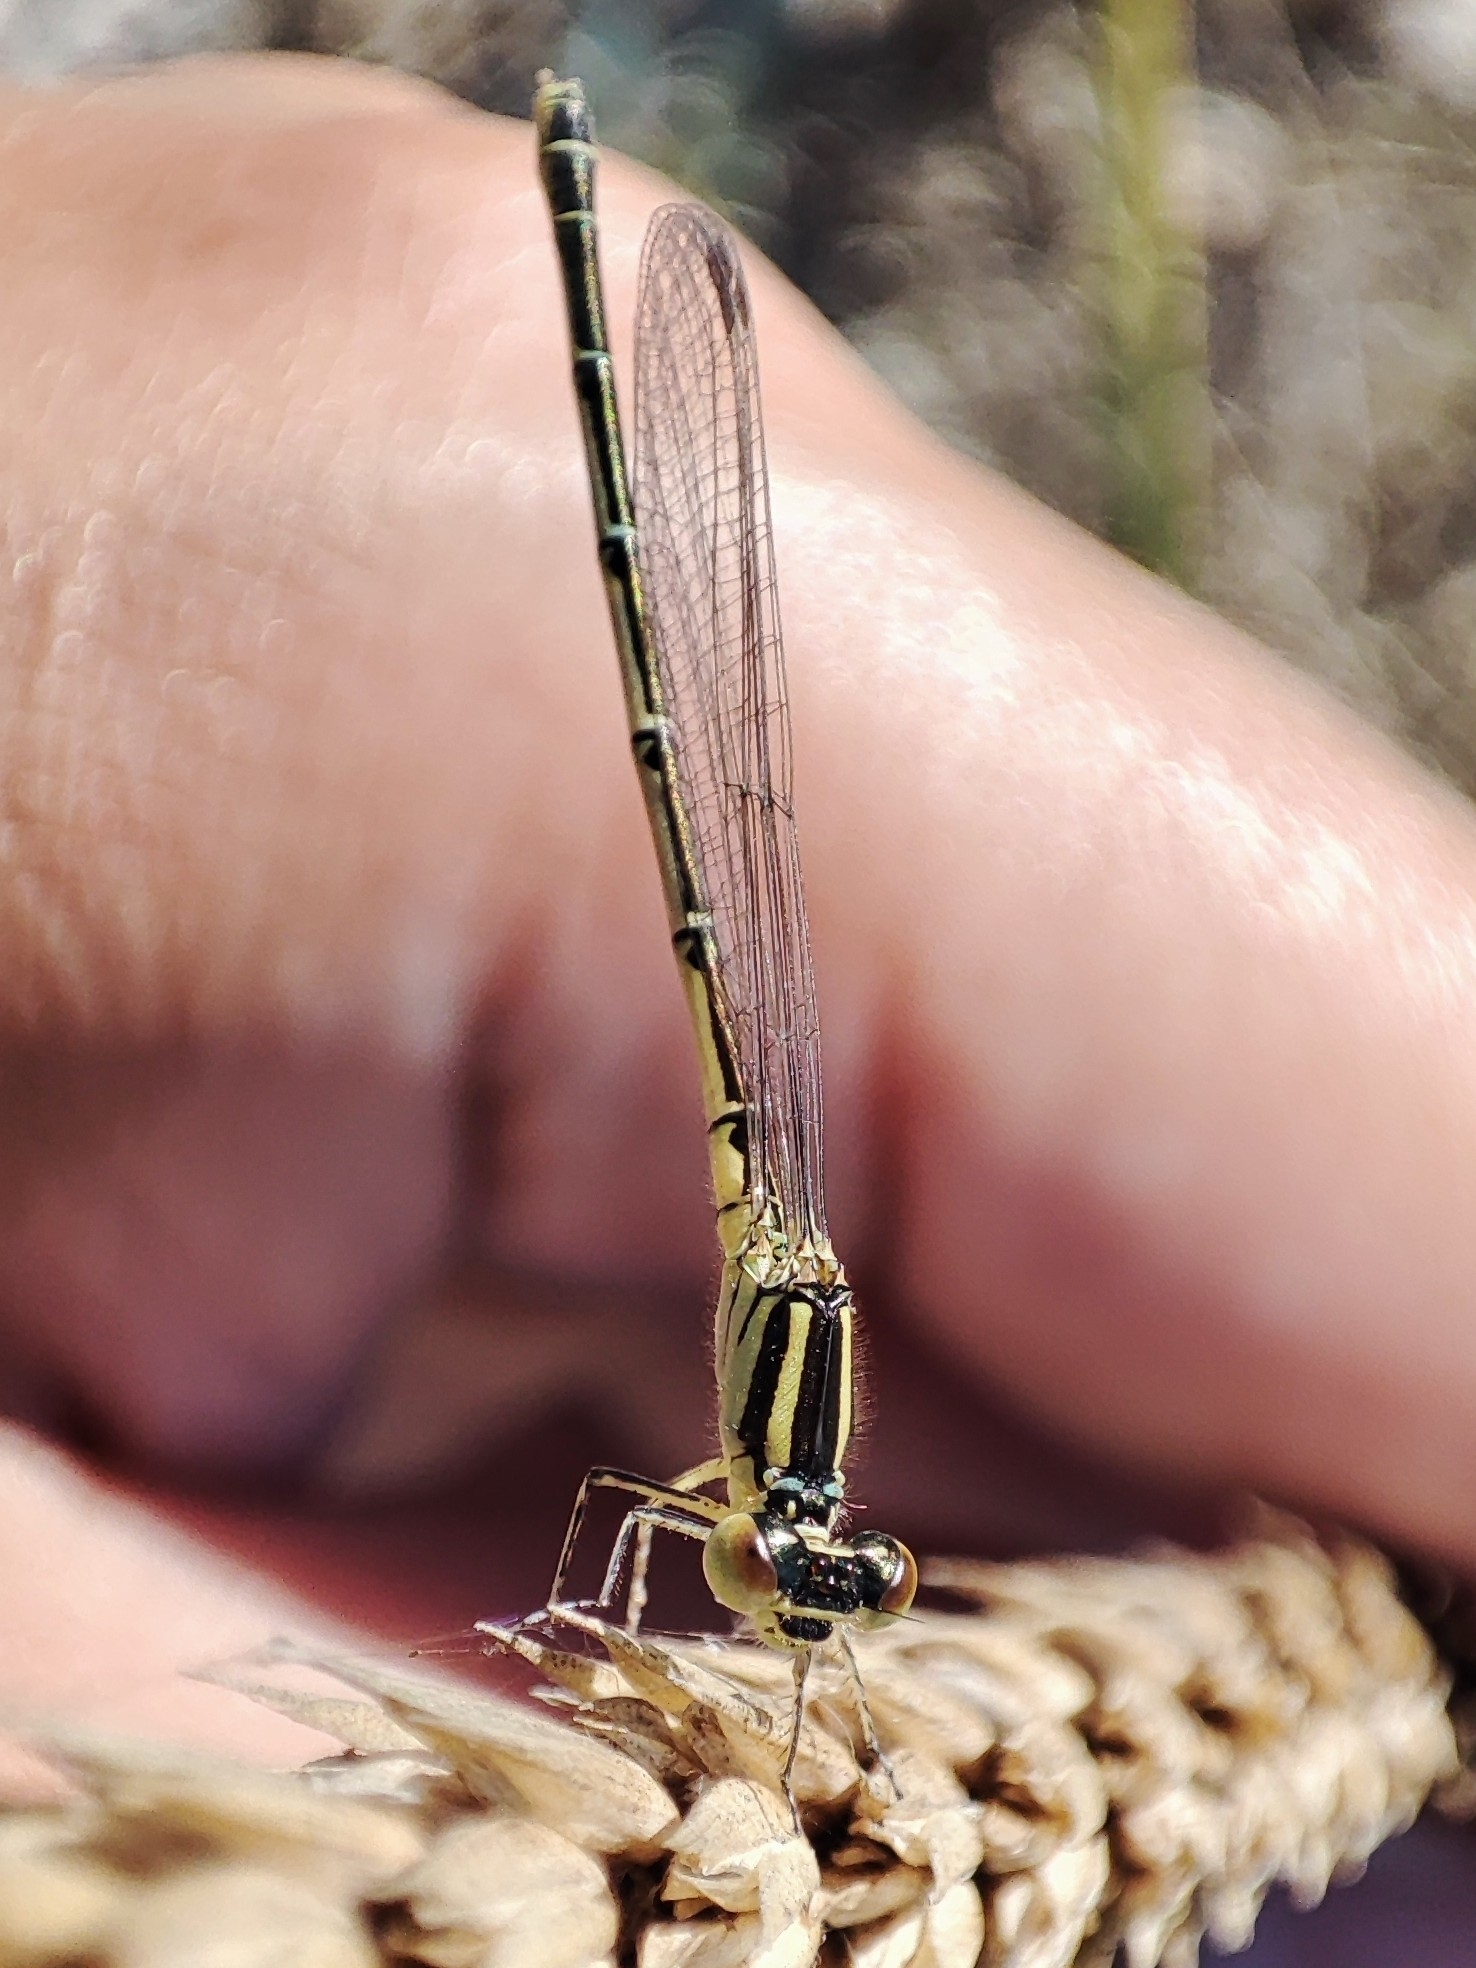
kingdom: Animalia
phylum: Arthropoda
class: Insecta
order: Odonata
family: Coenagrionidae
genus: Erythromma
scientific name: Erythromma lindenii
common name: Blue-eye
